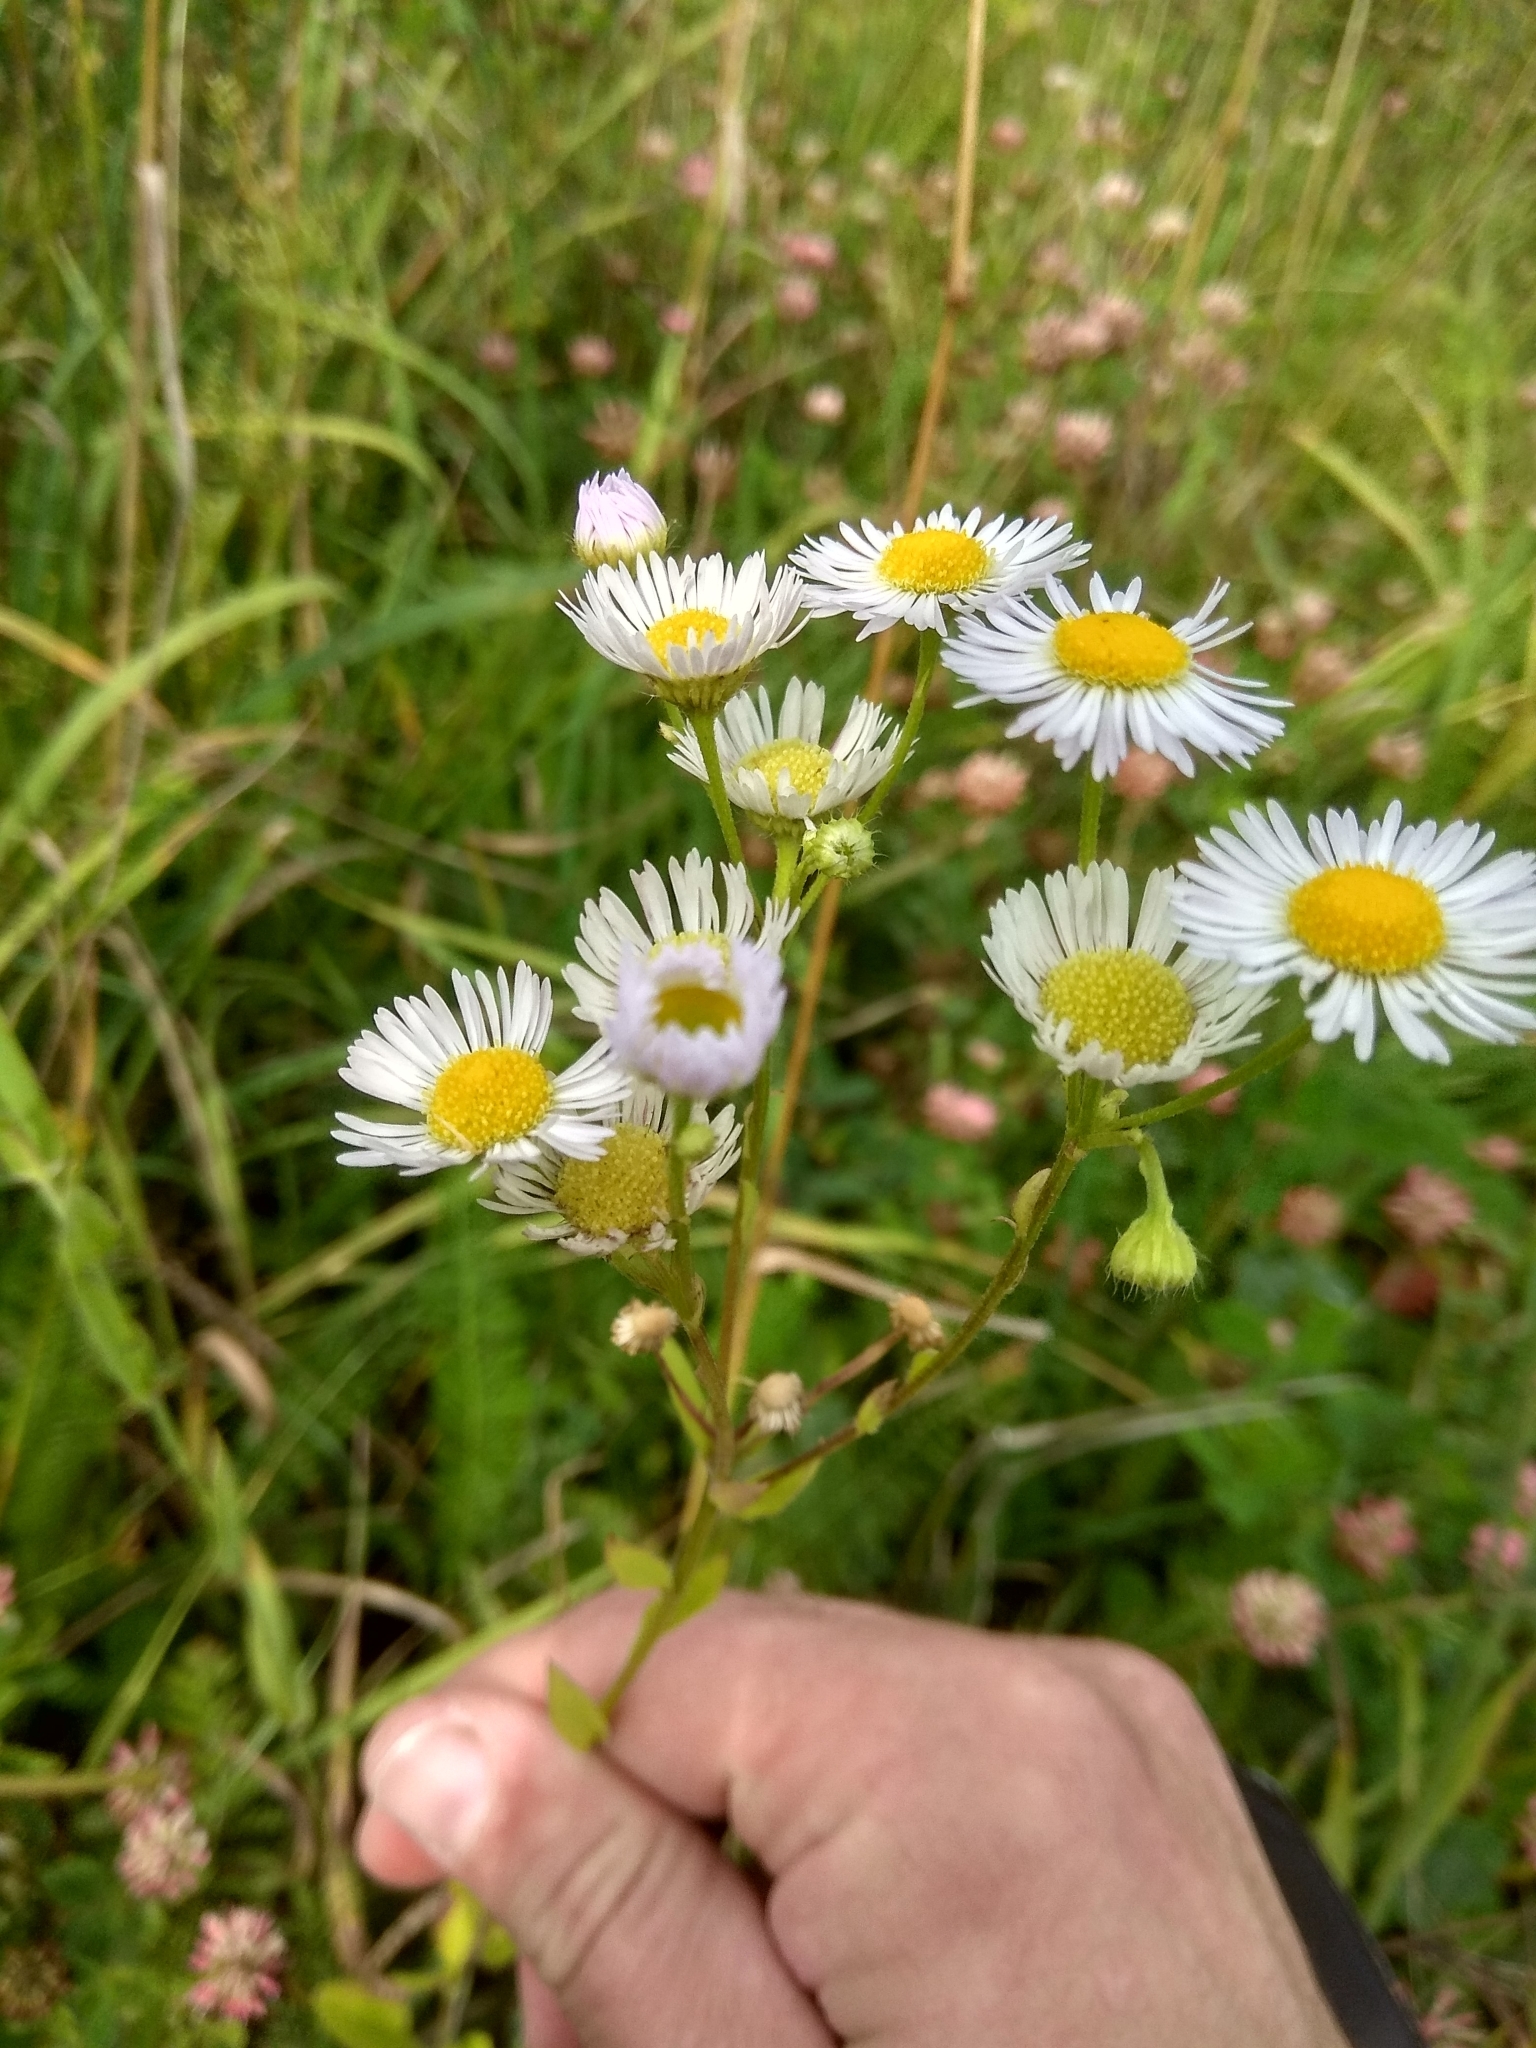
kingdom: Plantae
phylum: Tracheophyta
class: Magnoliopsida
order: Asterales
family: Asteraceae
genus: Erigeron
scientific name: Erigeron annuus
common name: Tall fleabane
